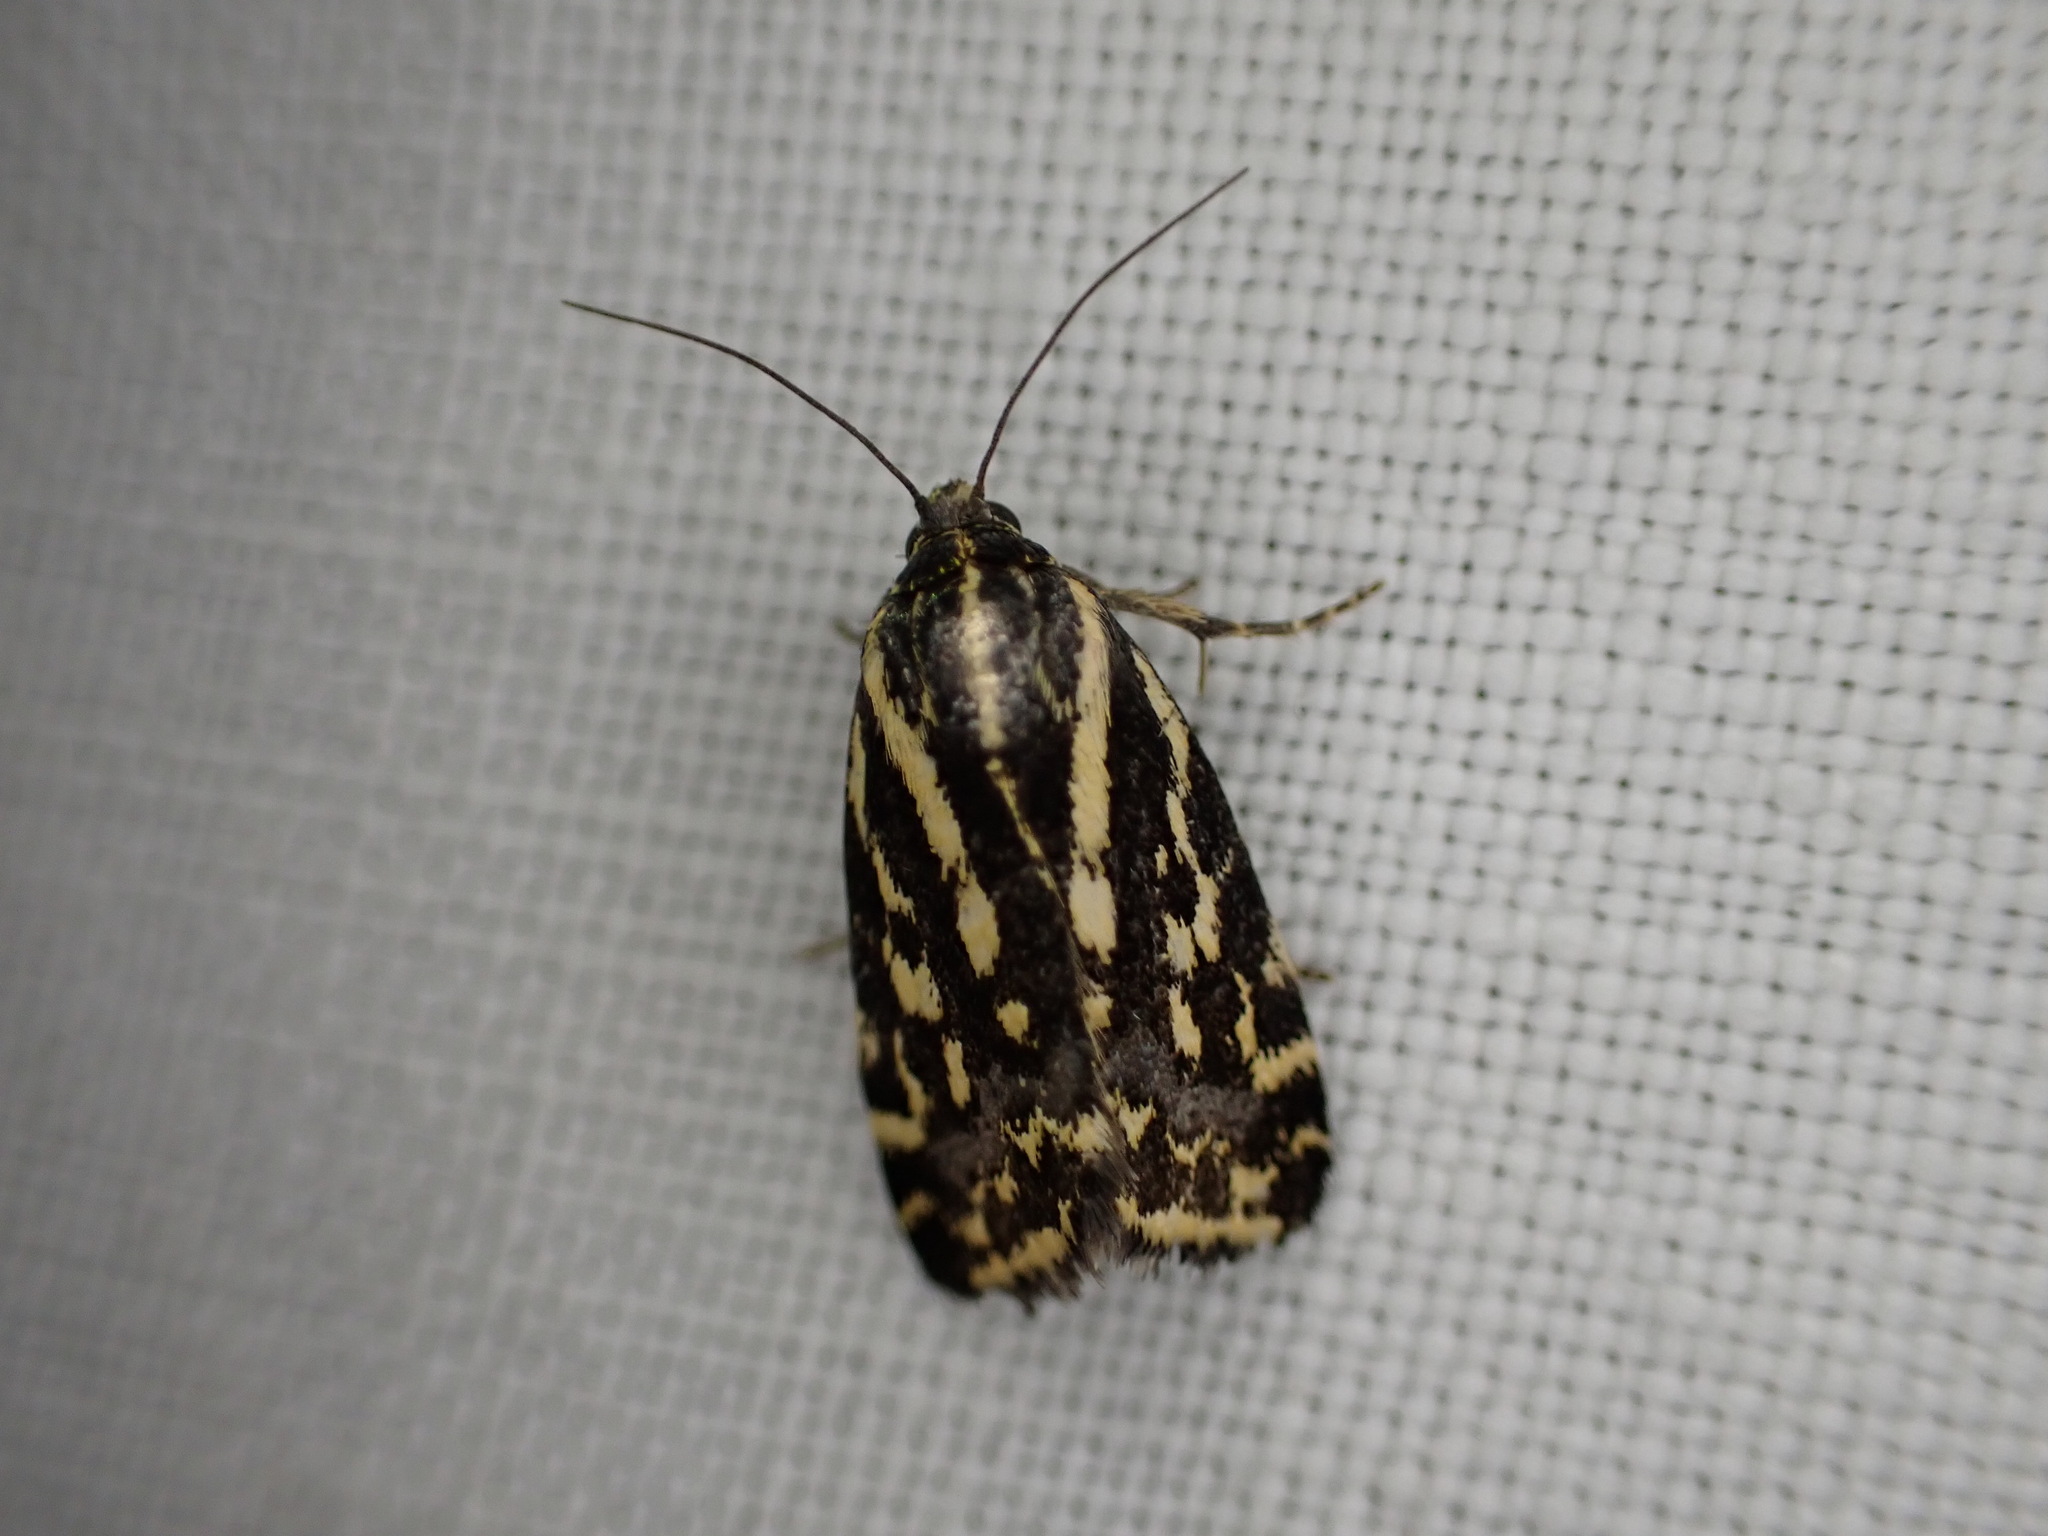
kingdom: Animalia
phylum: Arthropoda
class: Insecta
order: Lepidoptera
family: Noctuidae
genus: Acontia
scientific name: Acontia trabealis
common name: Spotted sulphur
